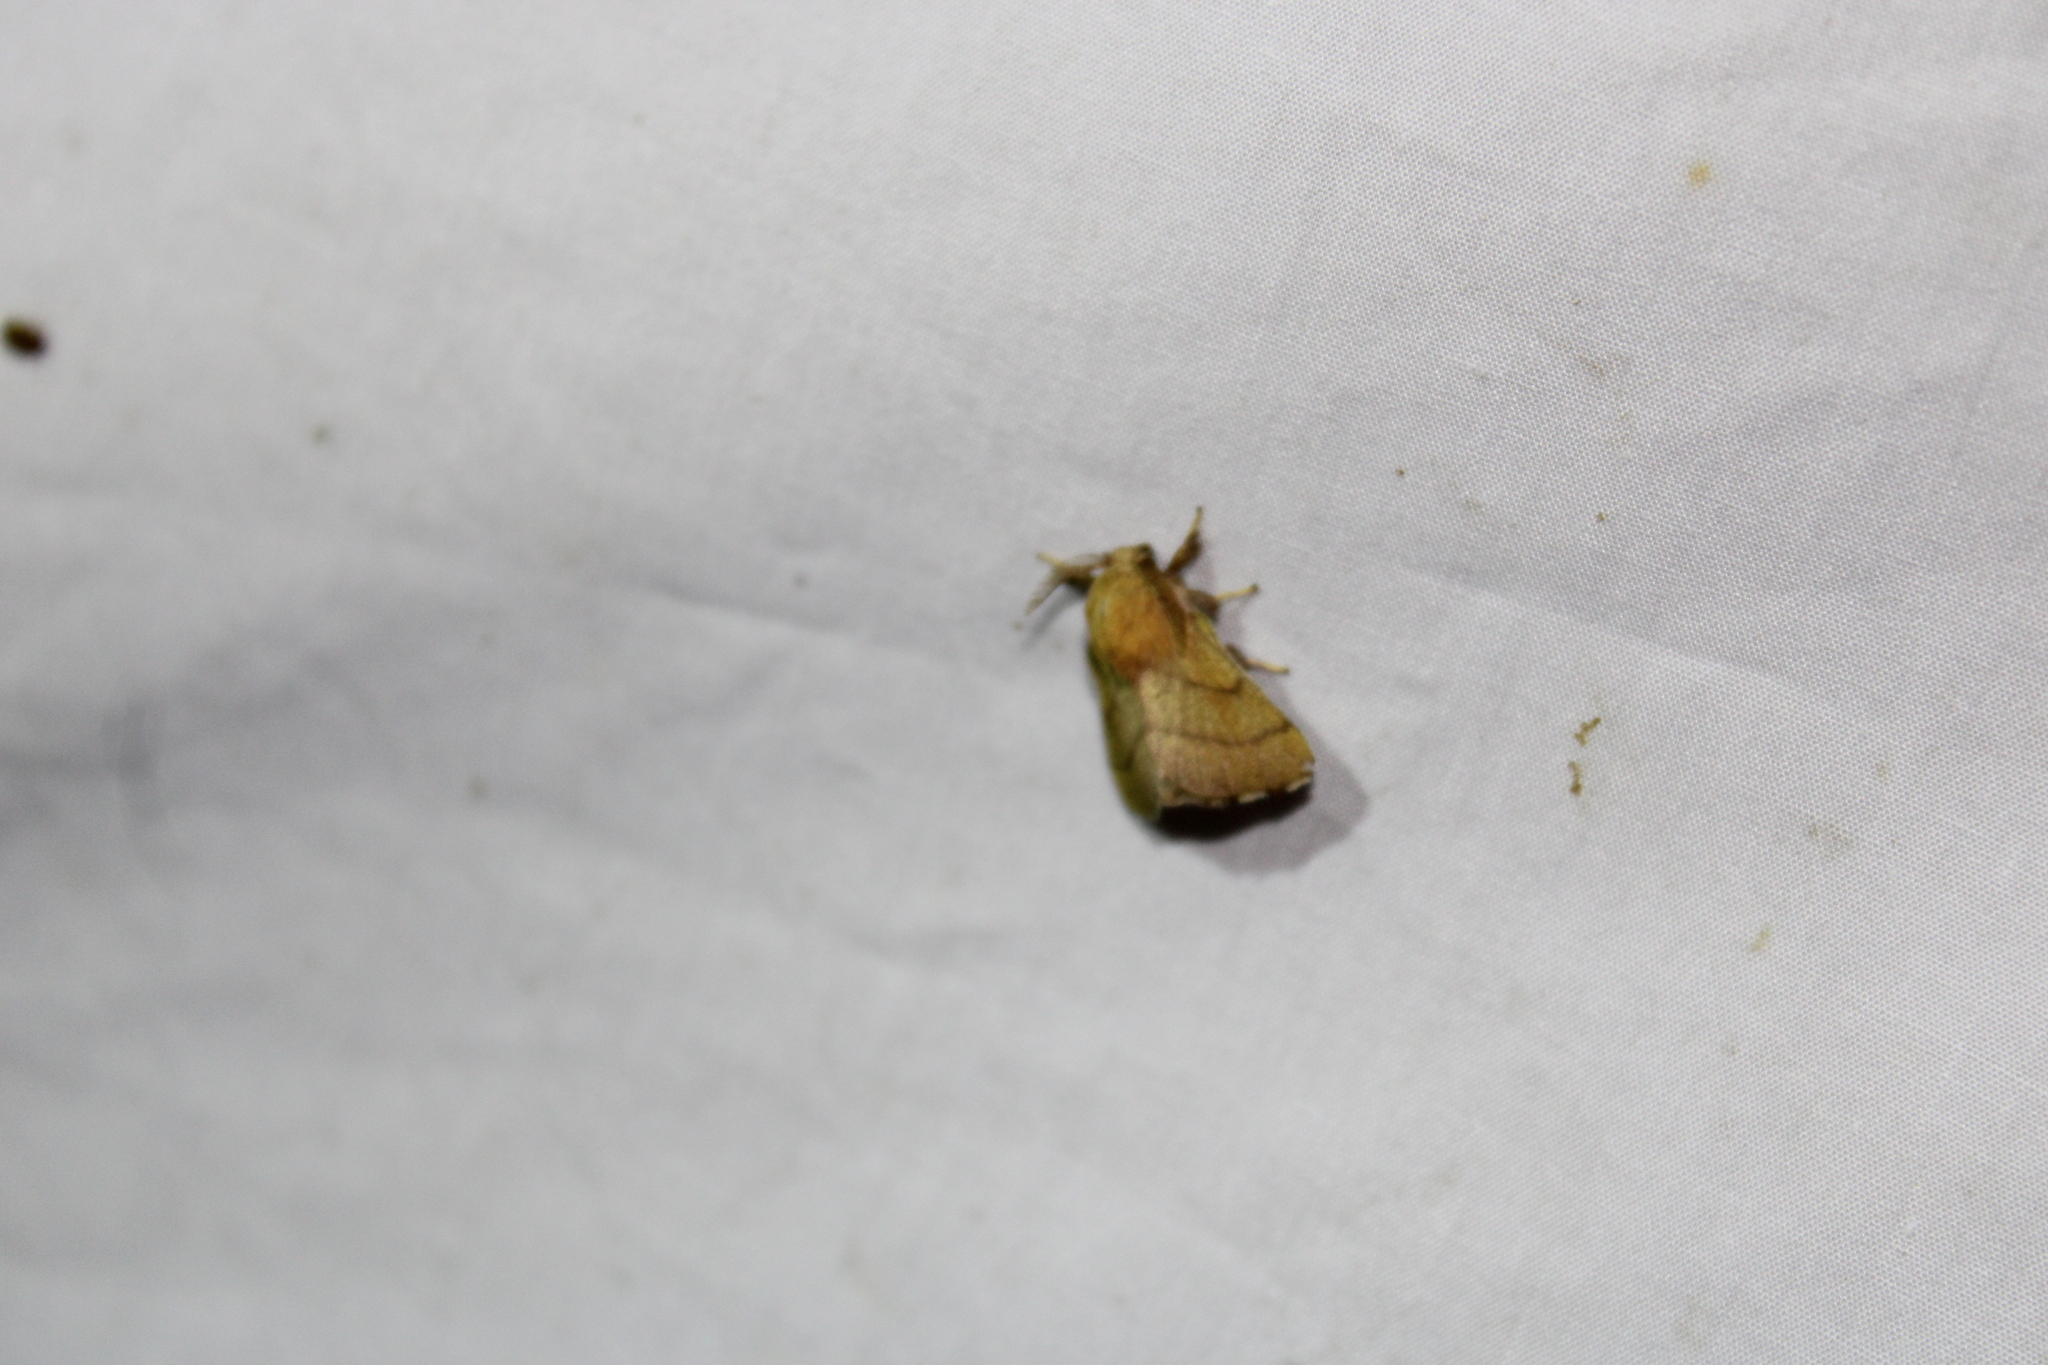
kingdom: Animalia
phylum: Arthropoda
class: Insecta
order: Lepidoptera
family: Lasiocampidae
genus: Malacosoma
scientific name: Malacosoma disstria
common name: Forest tent caterpillar
